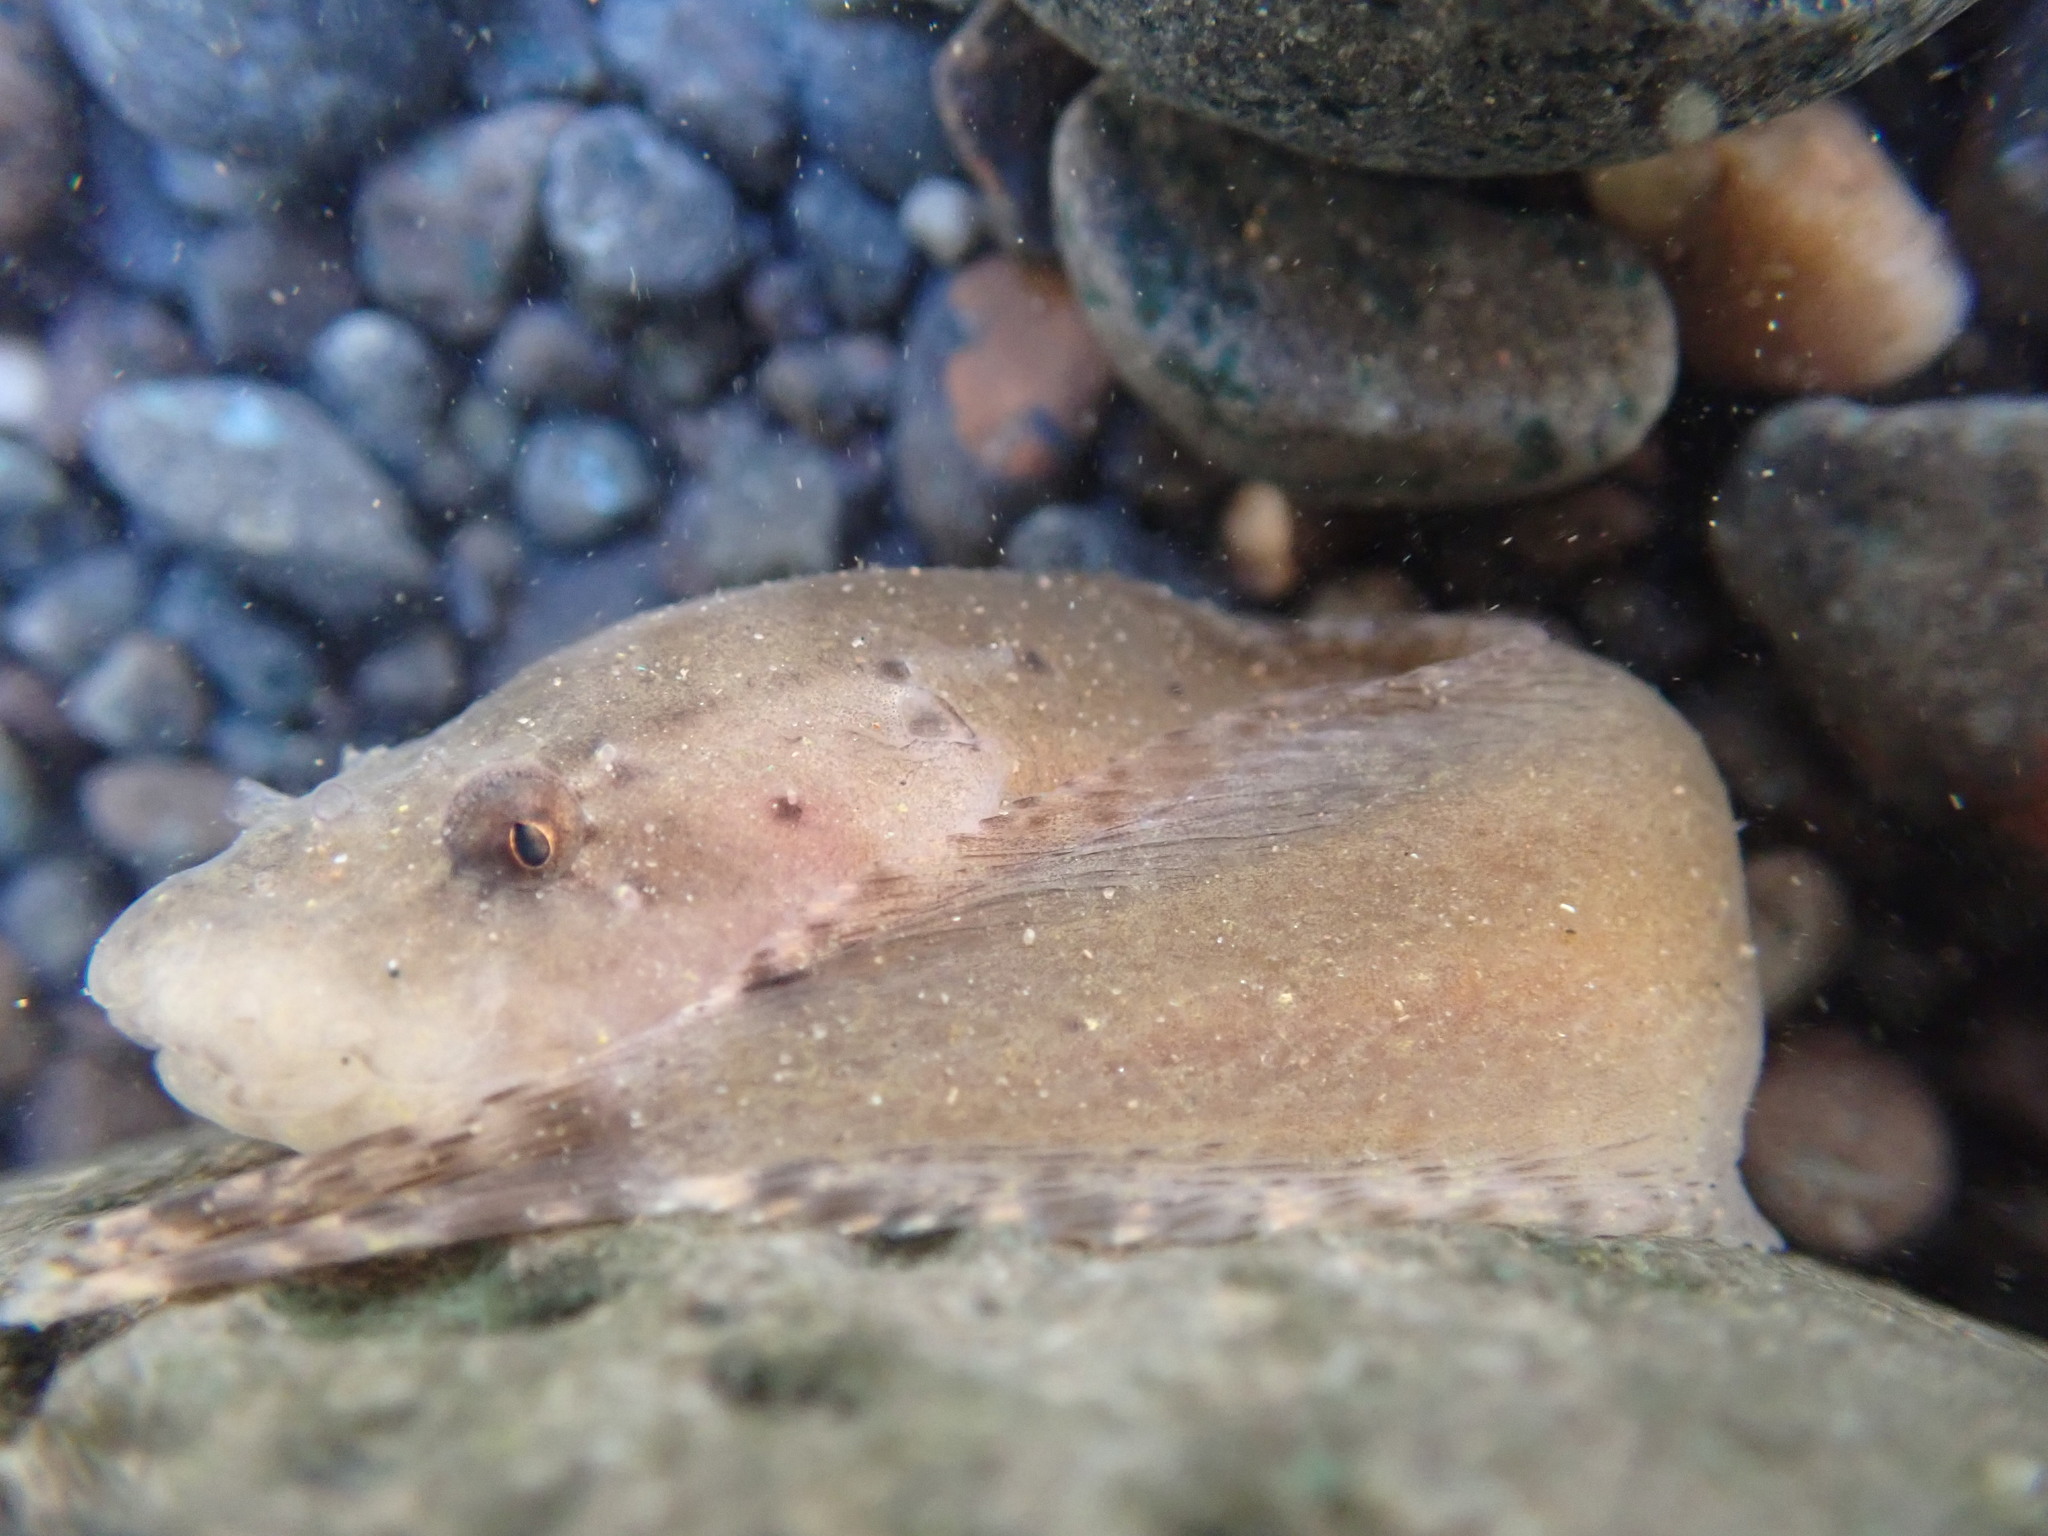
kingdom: Animalia
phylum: Chordata
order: Scorpaeniformes
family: Liparidae
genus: Liparis
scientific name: Liparis atlanticus
